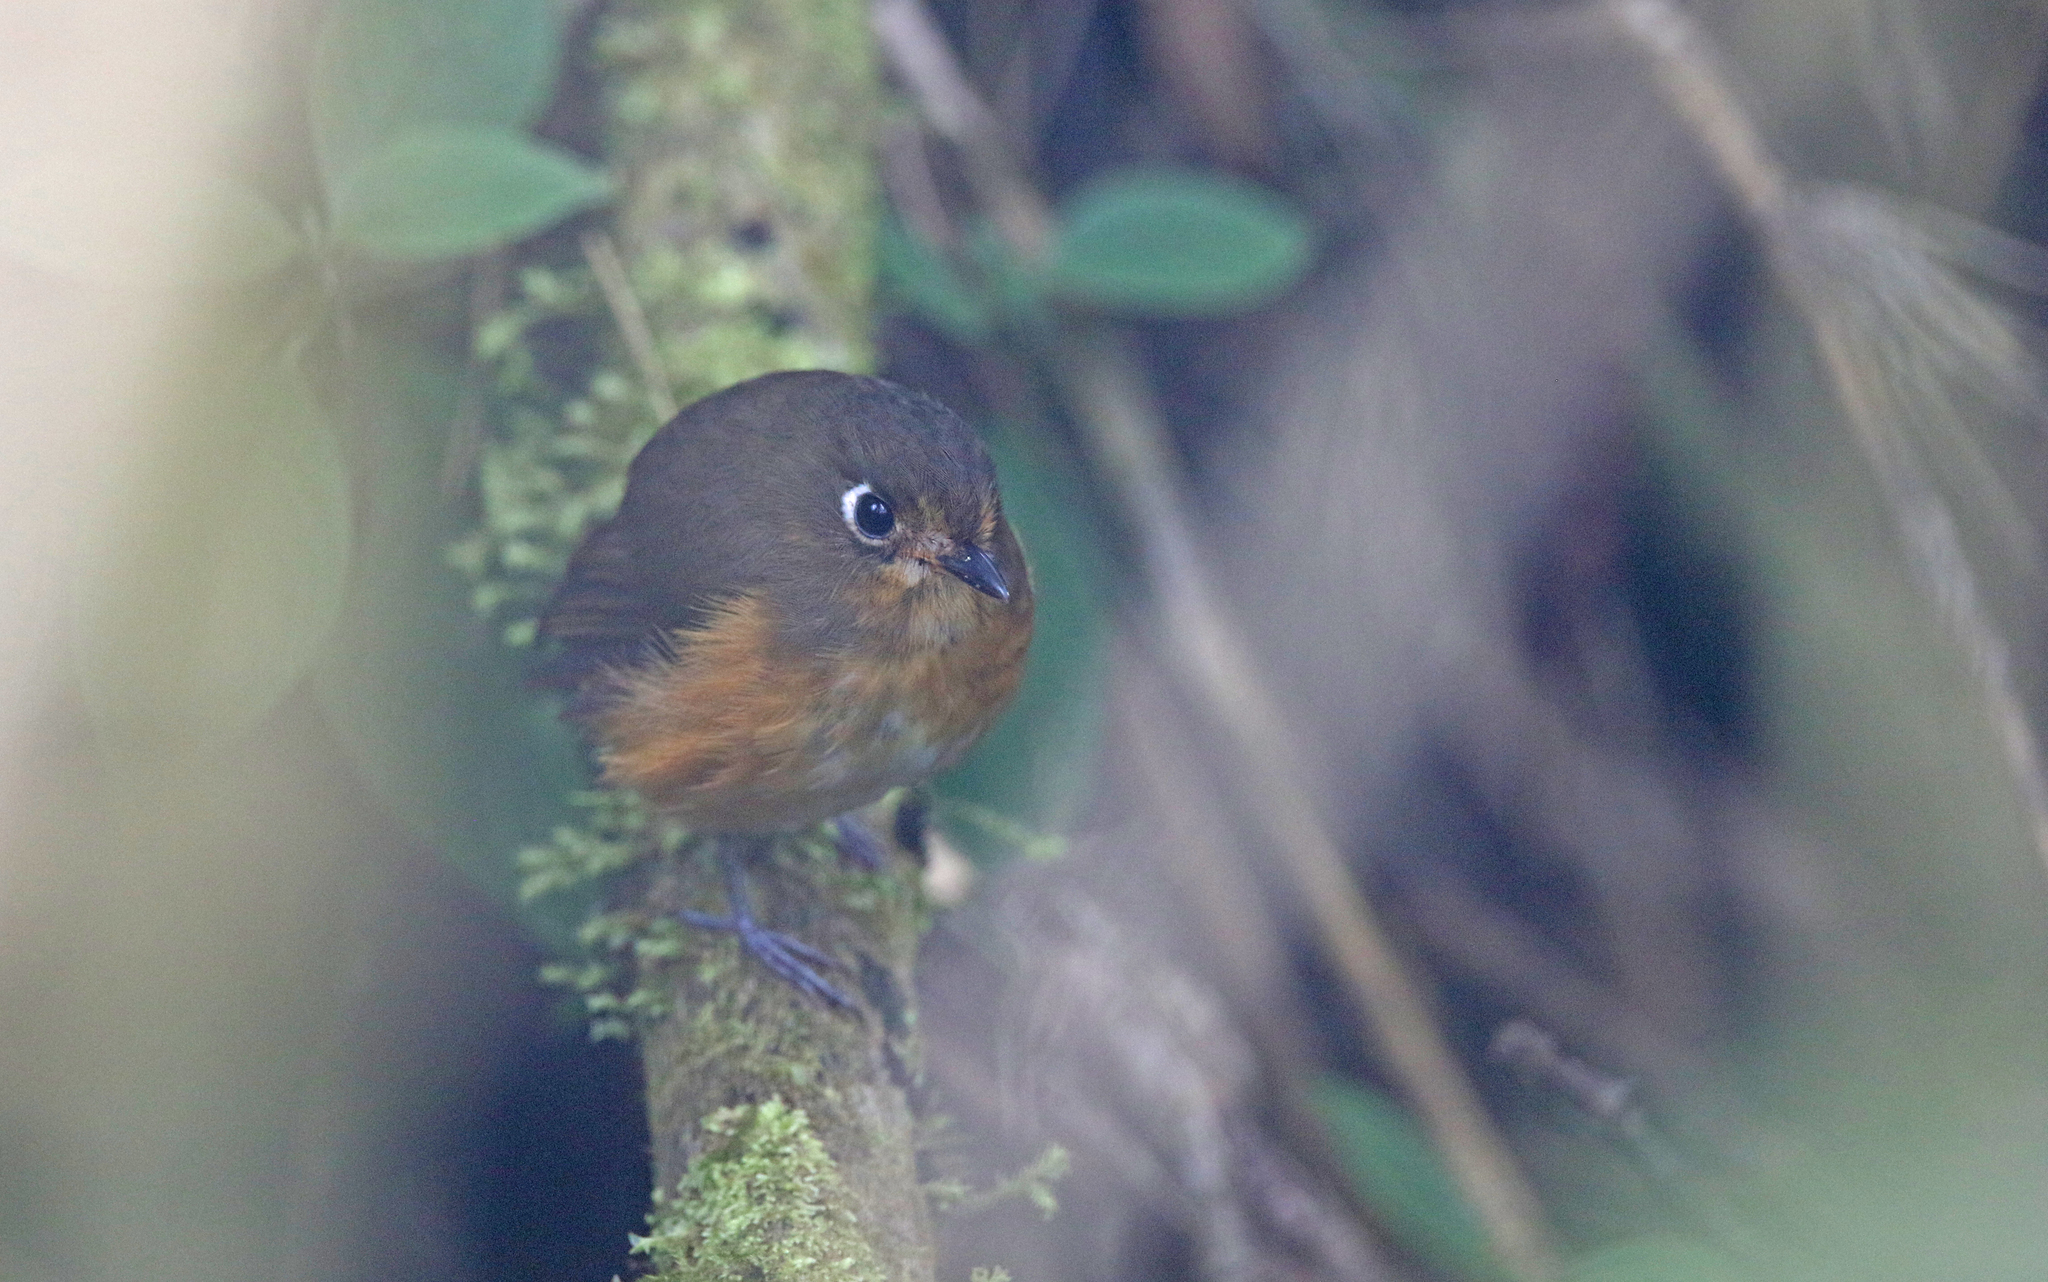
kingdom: Animalia
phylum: Chordata
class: Aves
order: Passeriformes
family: Grallariidae
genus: Grallaricula
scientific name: Grallaricula leymebambae
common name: Rufous-breasted antpitta
